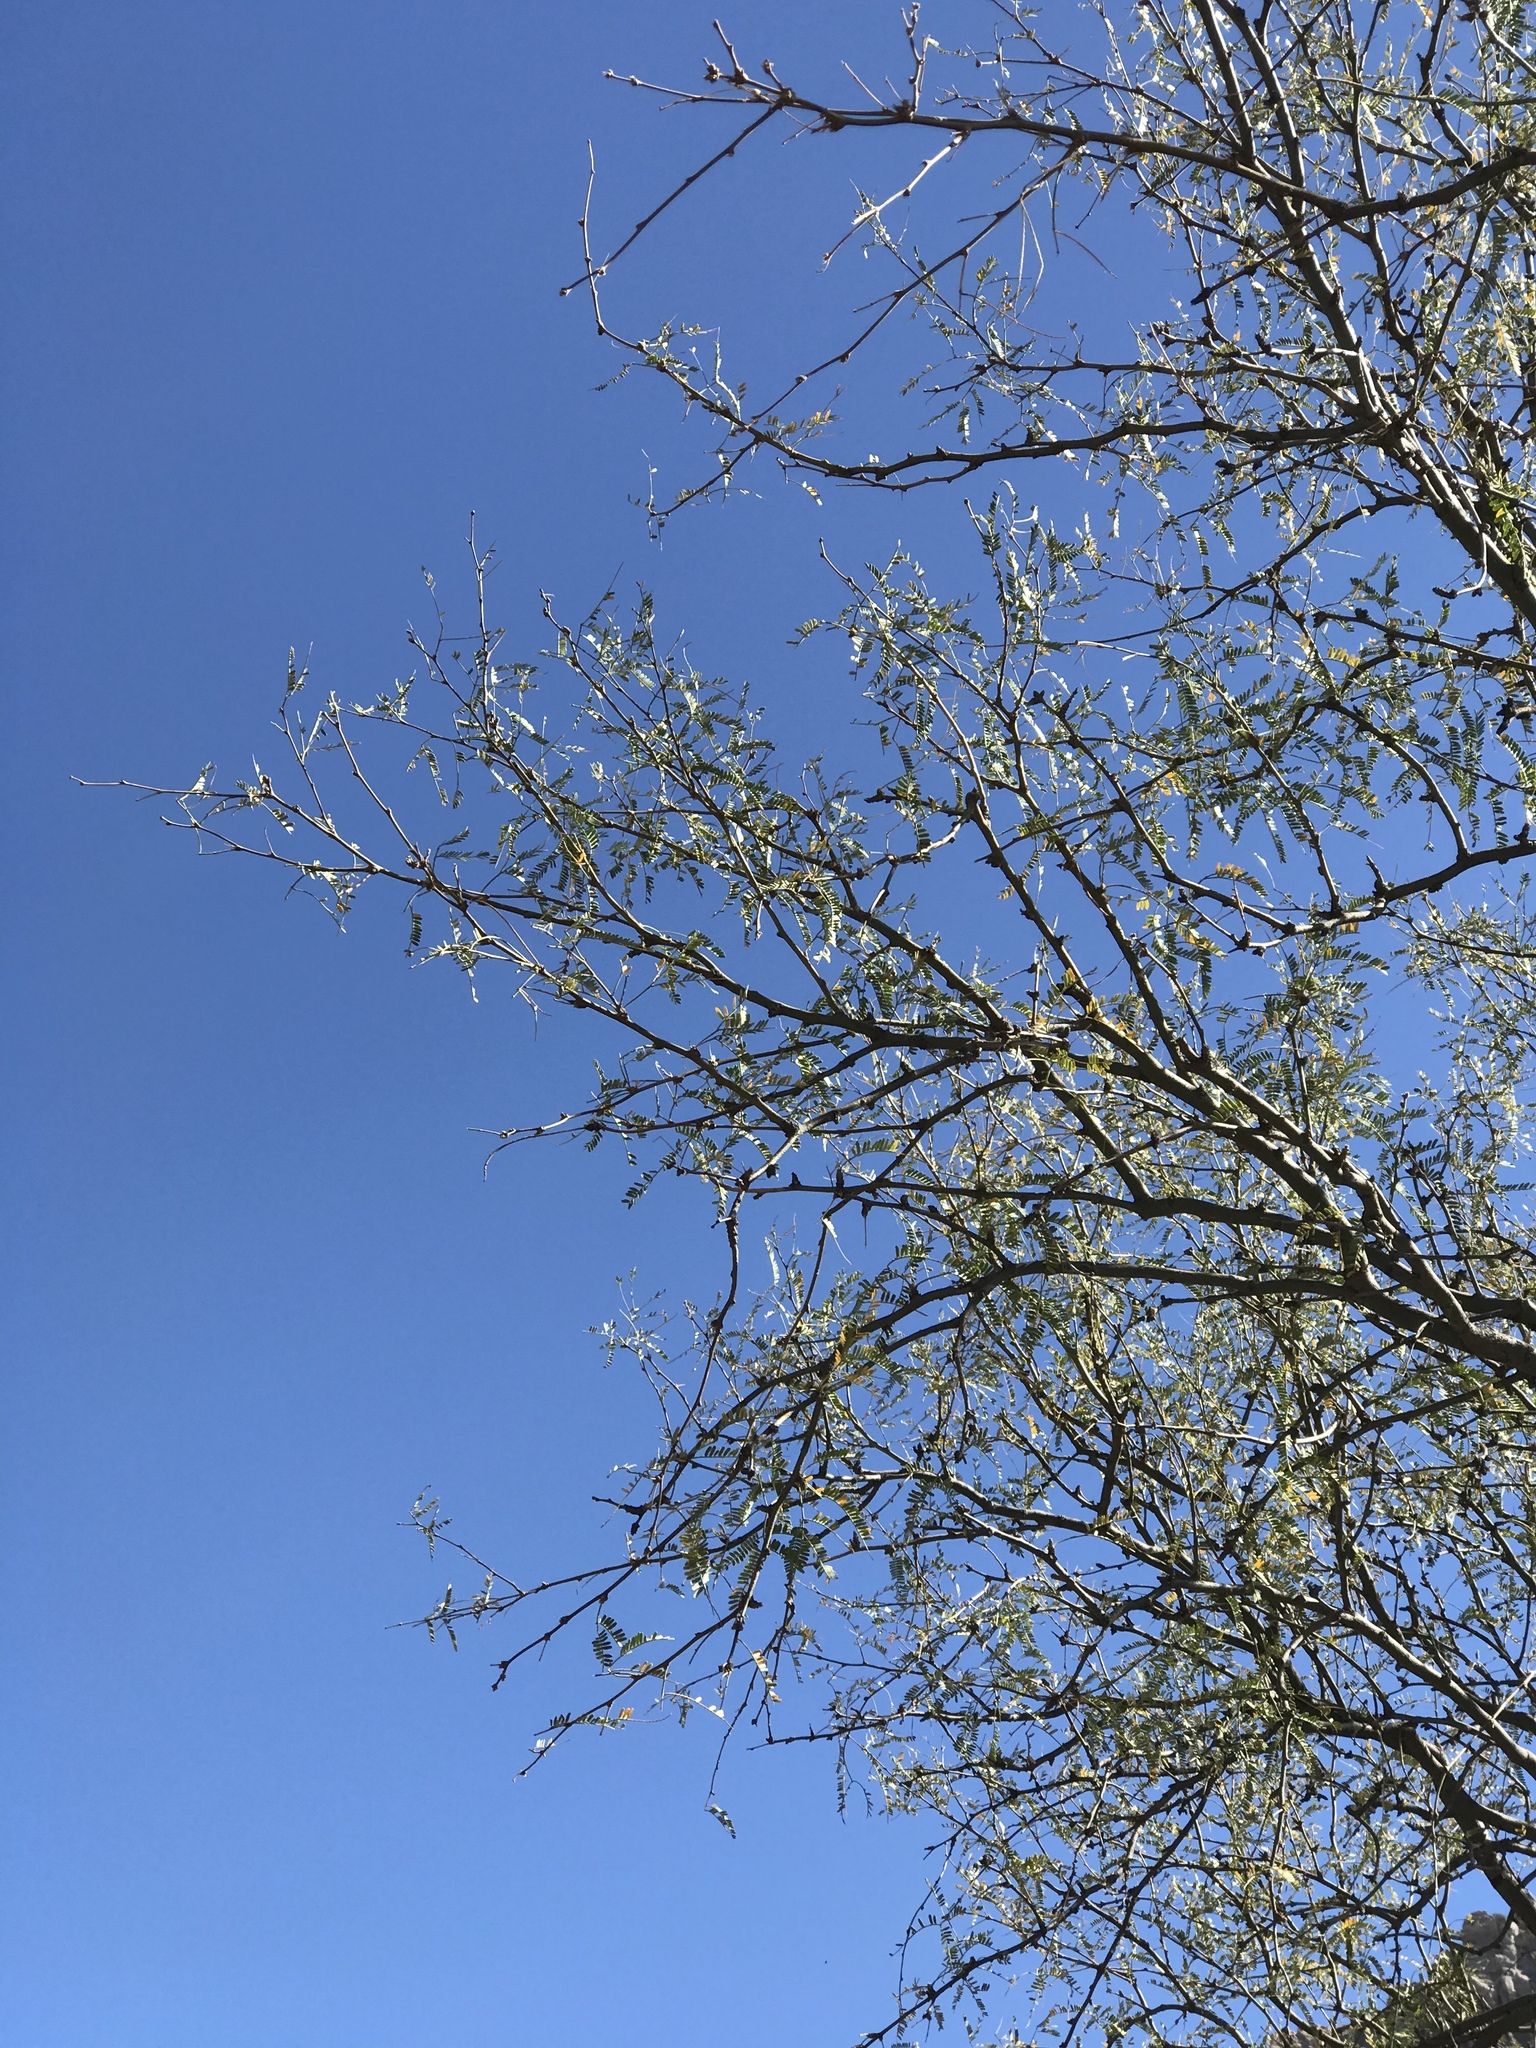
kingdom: Plantae
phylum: Tracheophyta
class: Magnoliopsida
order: Fabales
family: Fabaceae
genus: Prosopis
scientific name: Prosopis velutina
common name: Velvet mesquite
